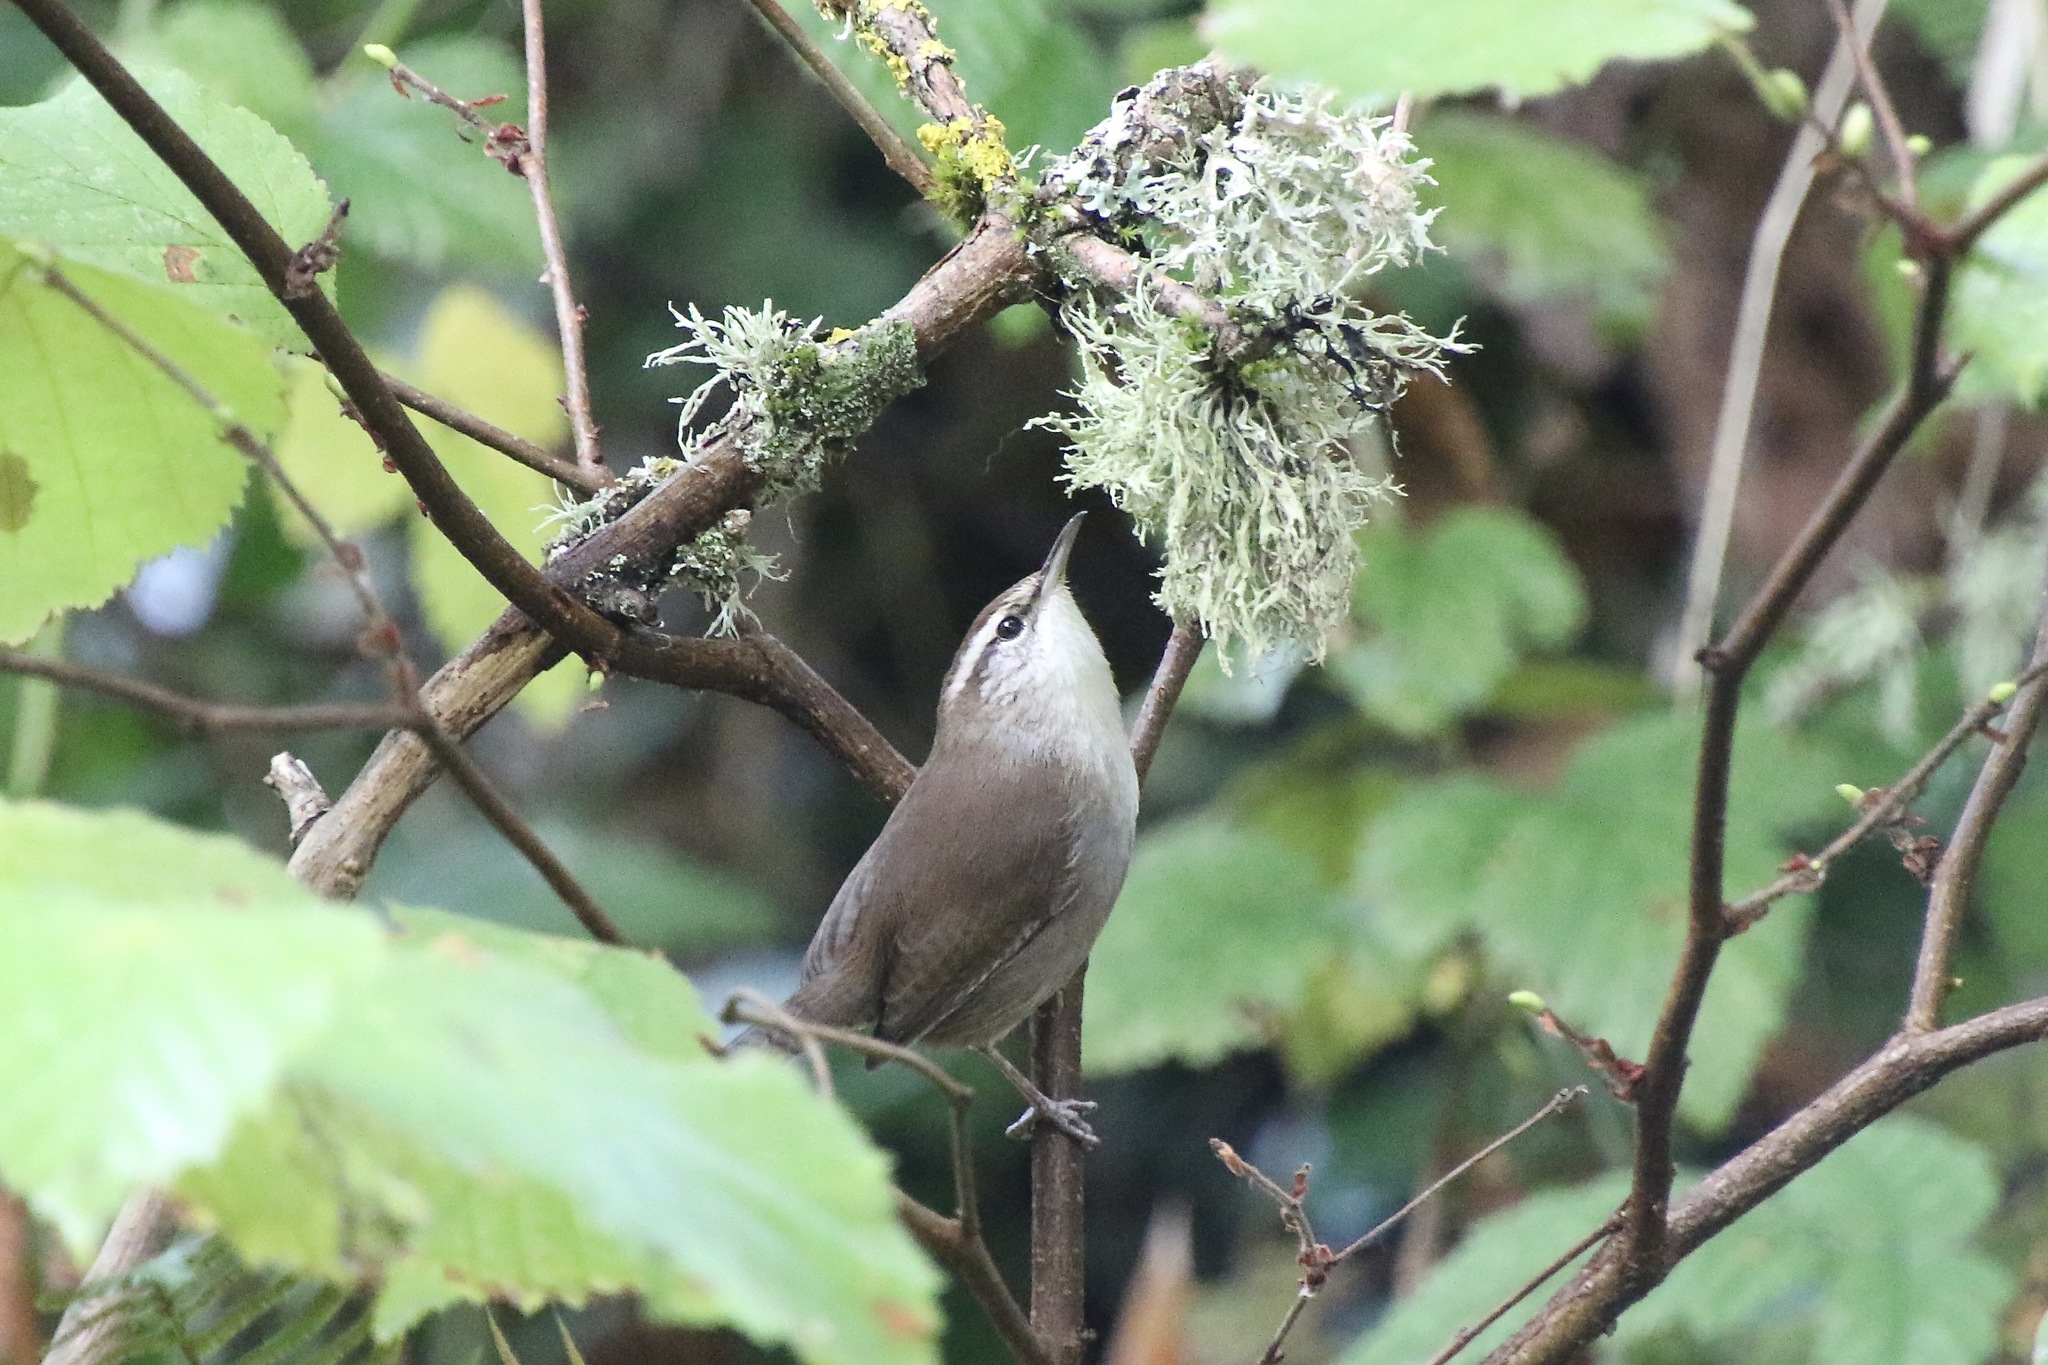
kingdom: Animalia
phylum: Chordata
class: Aves
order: Passeriformes
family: Troglodytidae
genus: Thryomanes
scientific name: Thryomanes bewickii
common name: Bewick's wren
